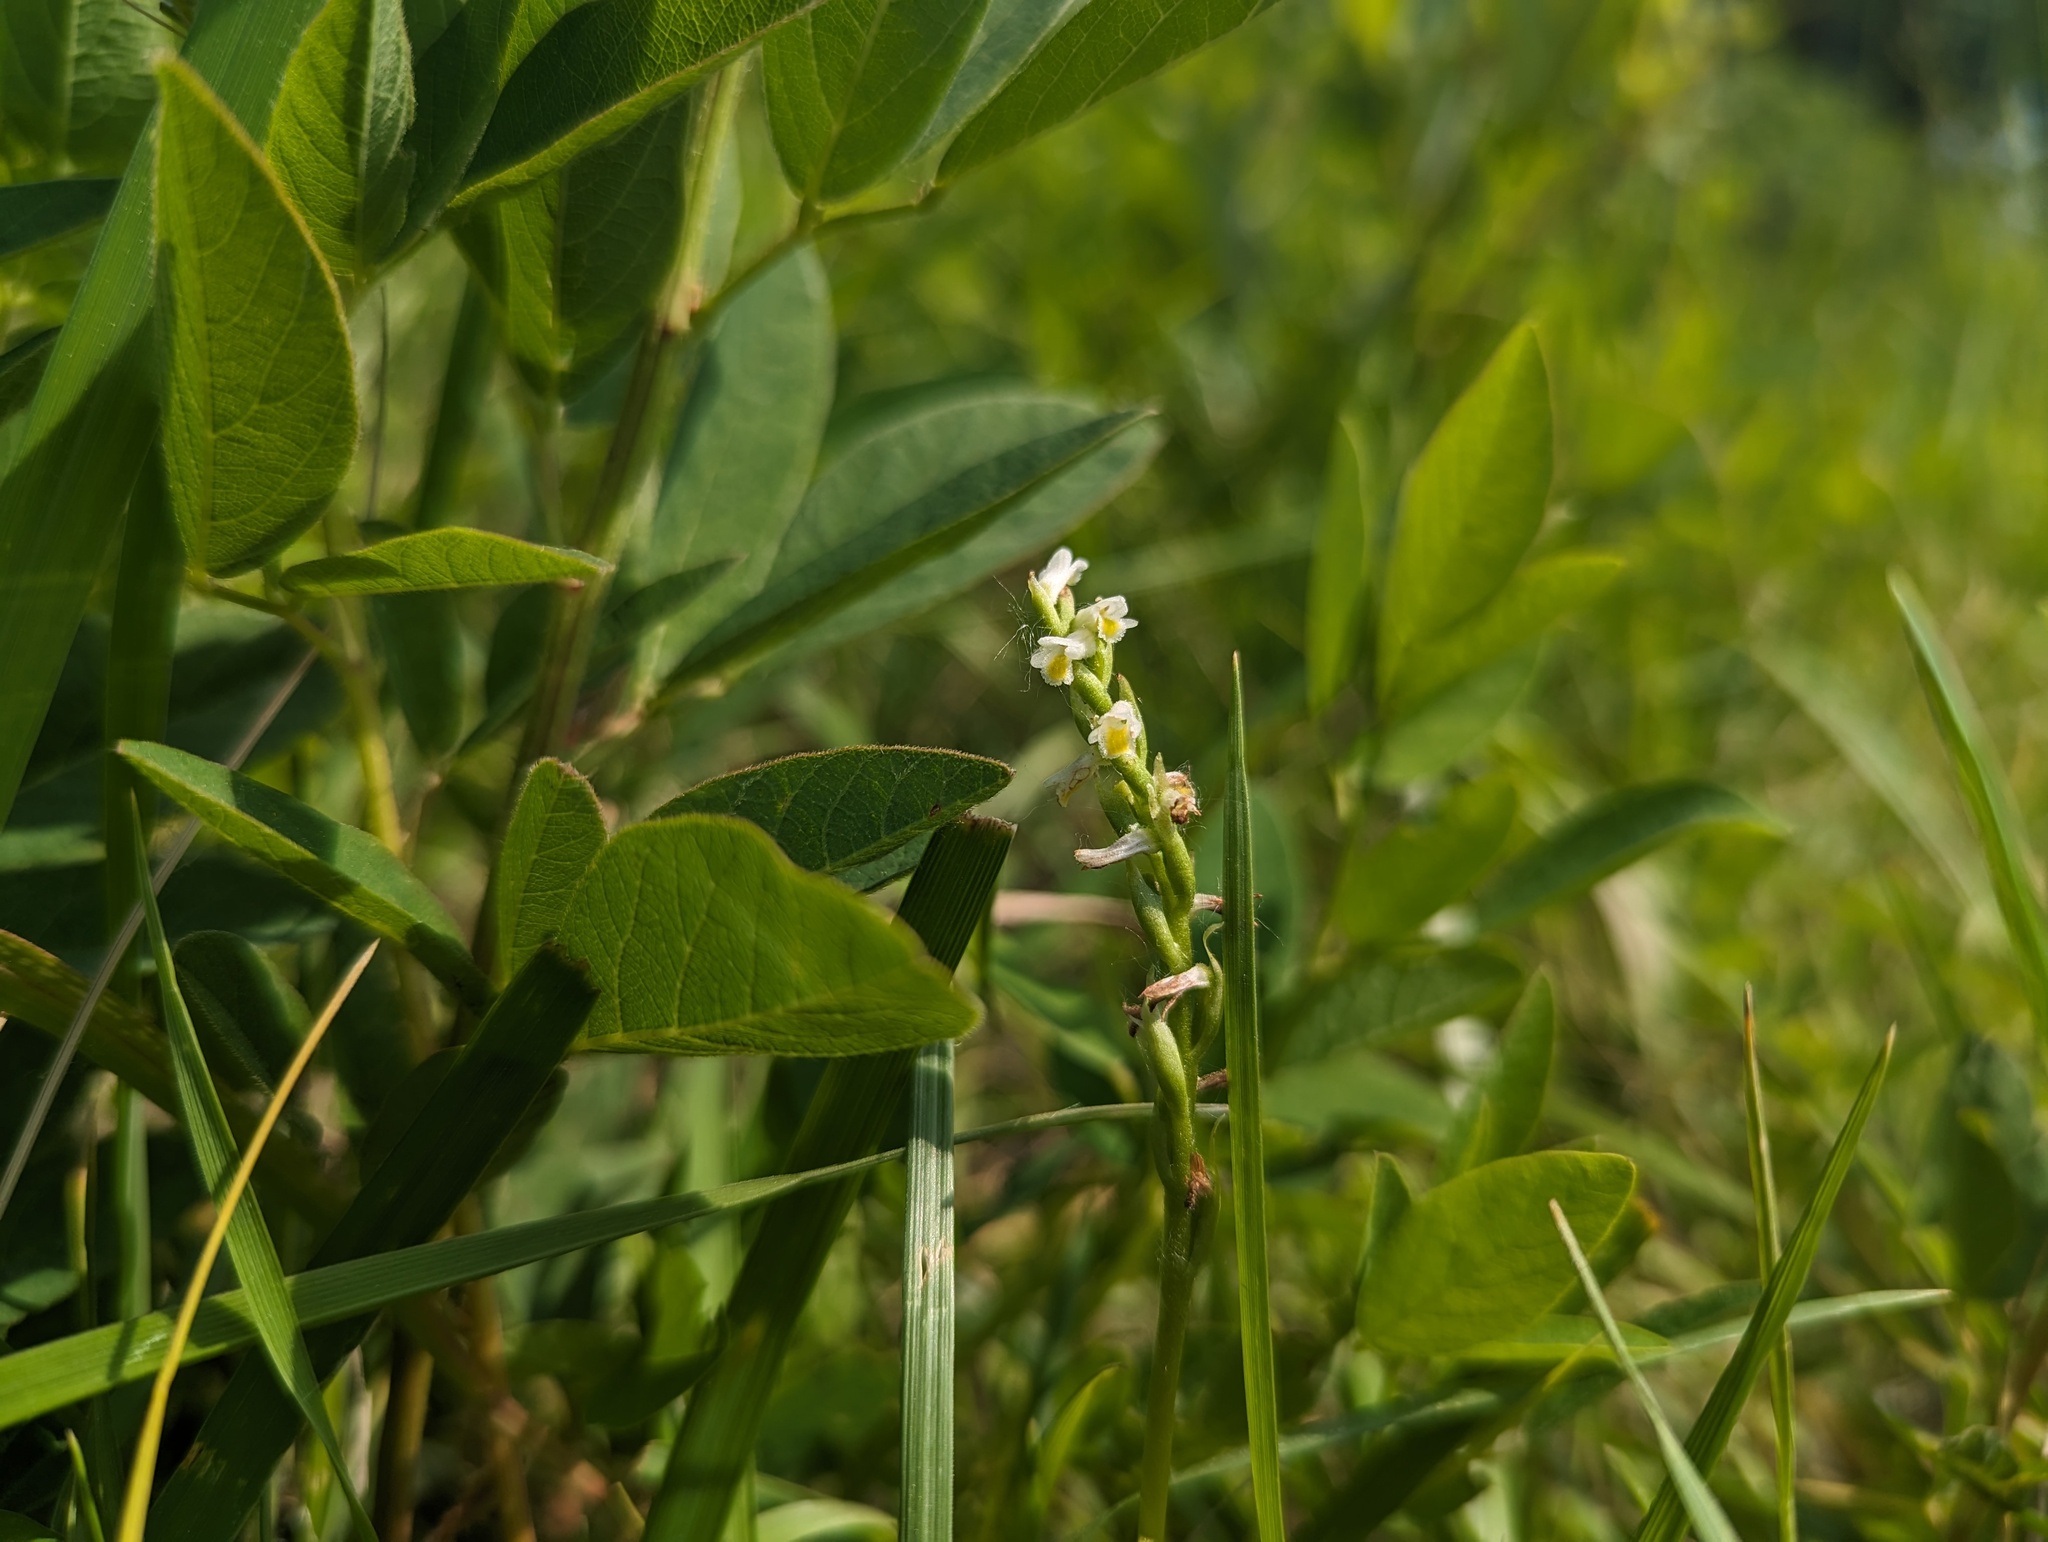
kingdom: Plantae
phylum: Tracheophyta
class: Liliopsida
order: Asparagales
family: Orchidaceae
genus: Spiranthes
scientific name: Spiranthes lucida
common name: Broad-leaved ladies'-tresses
